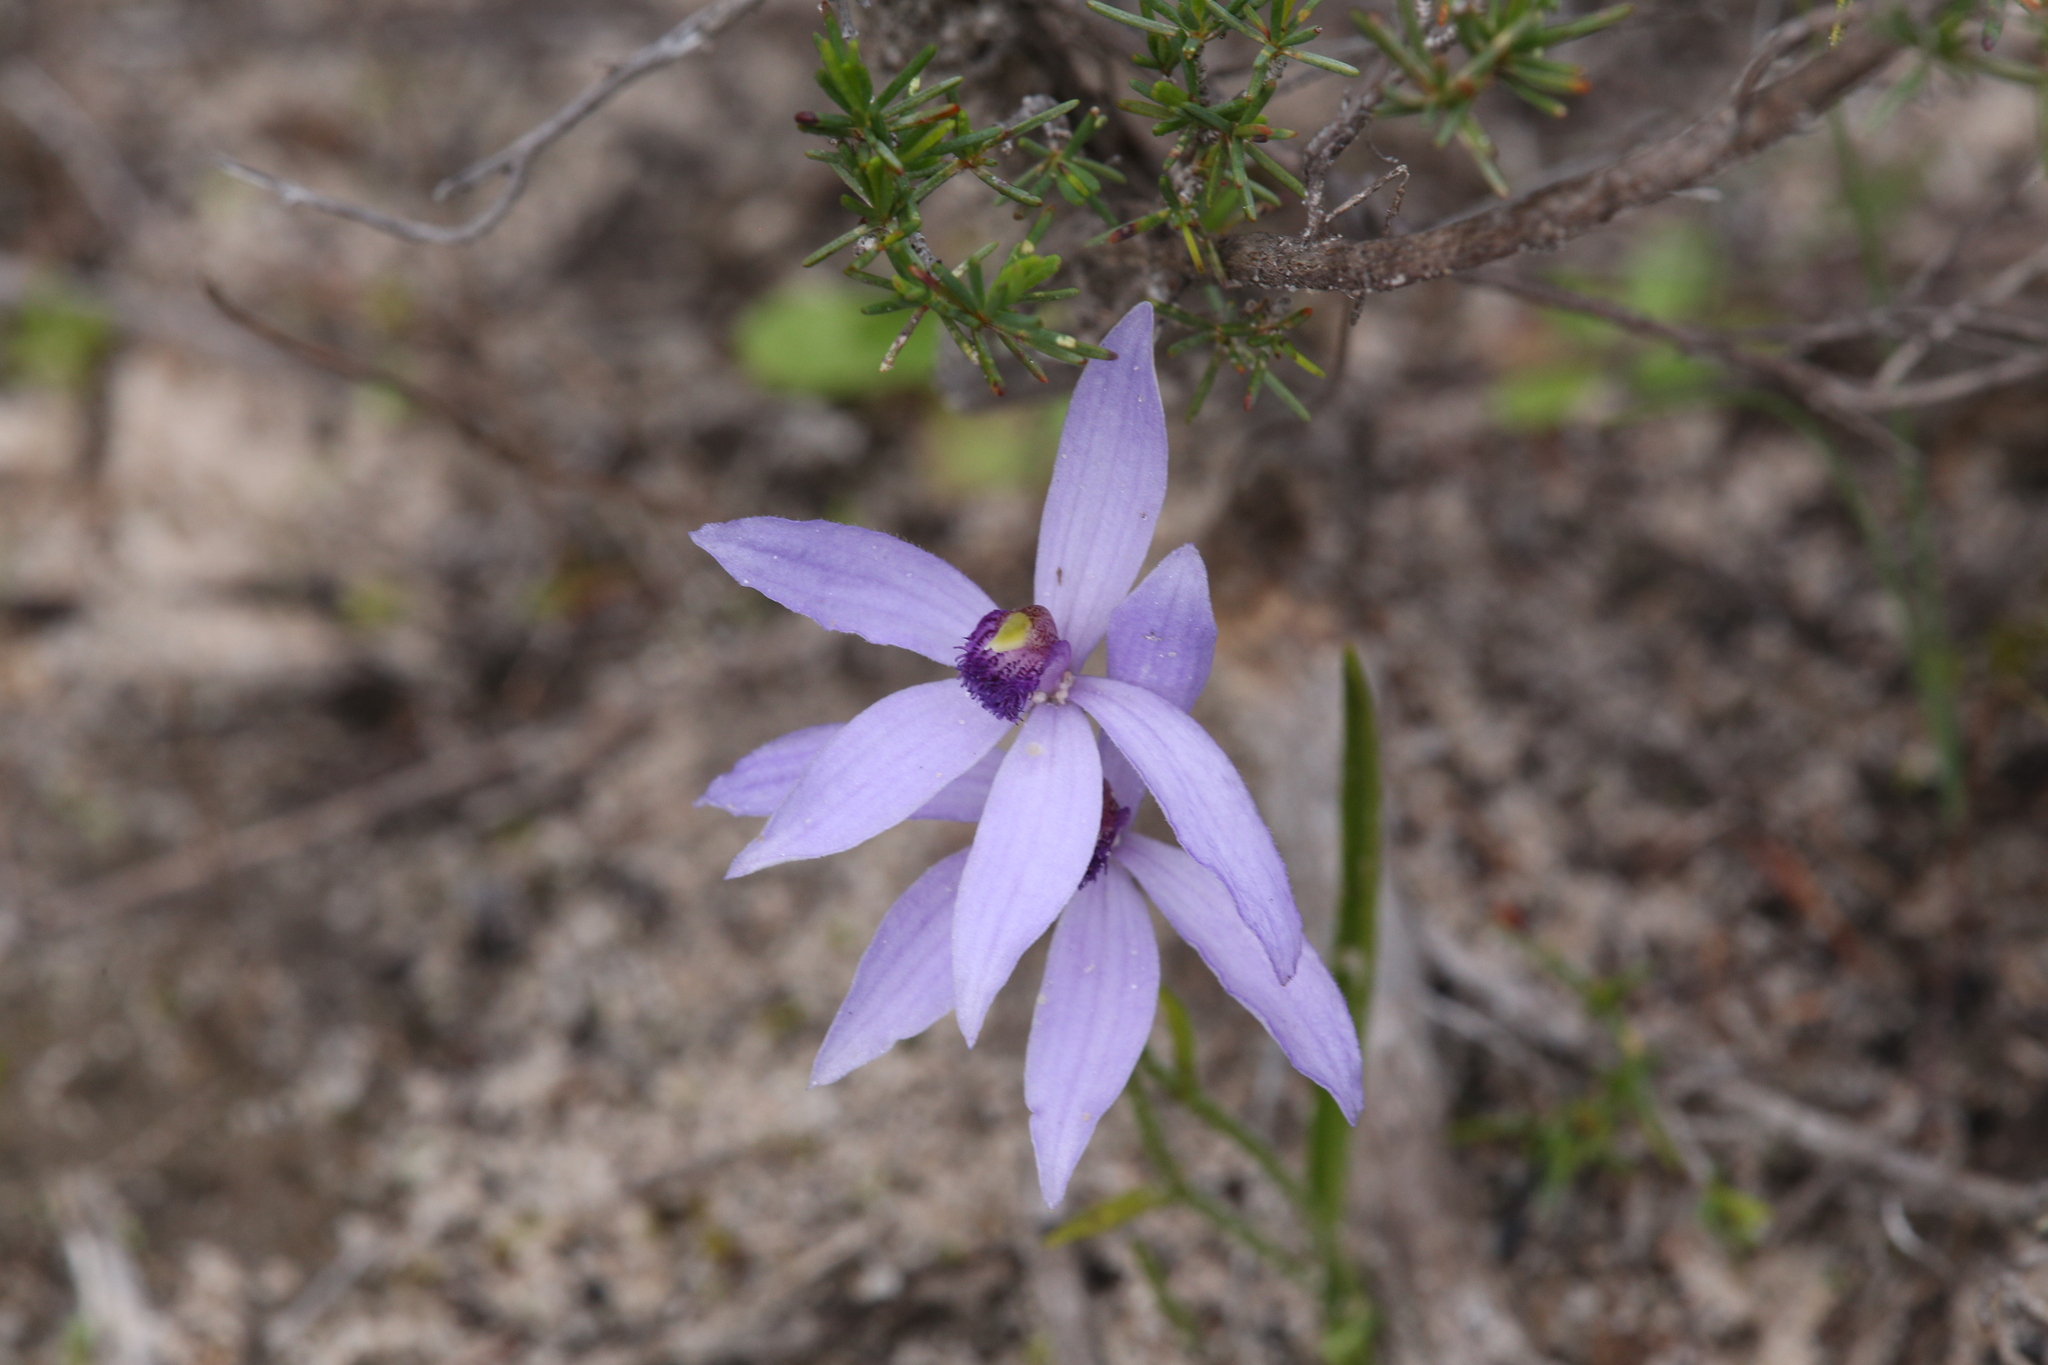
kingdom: Plantae
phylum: Tracheophyta
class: Liliopsida
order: Asparagales
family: Orchidaceae
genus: Pheladenia
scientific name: Pheladenia deformis
